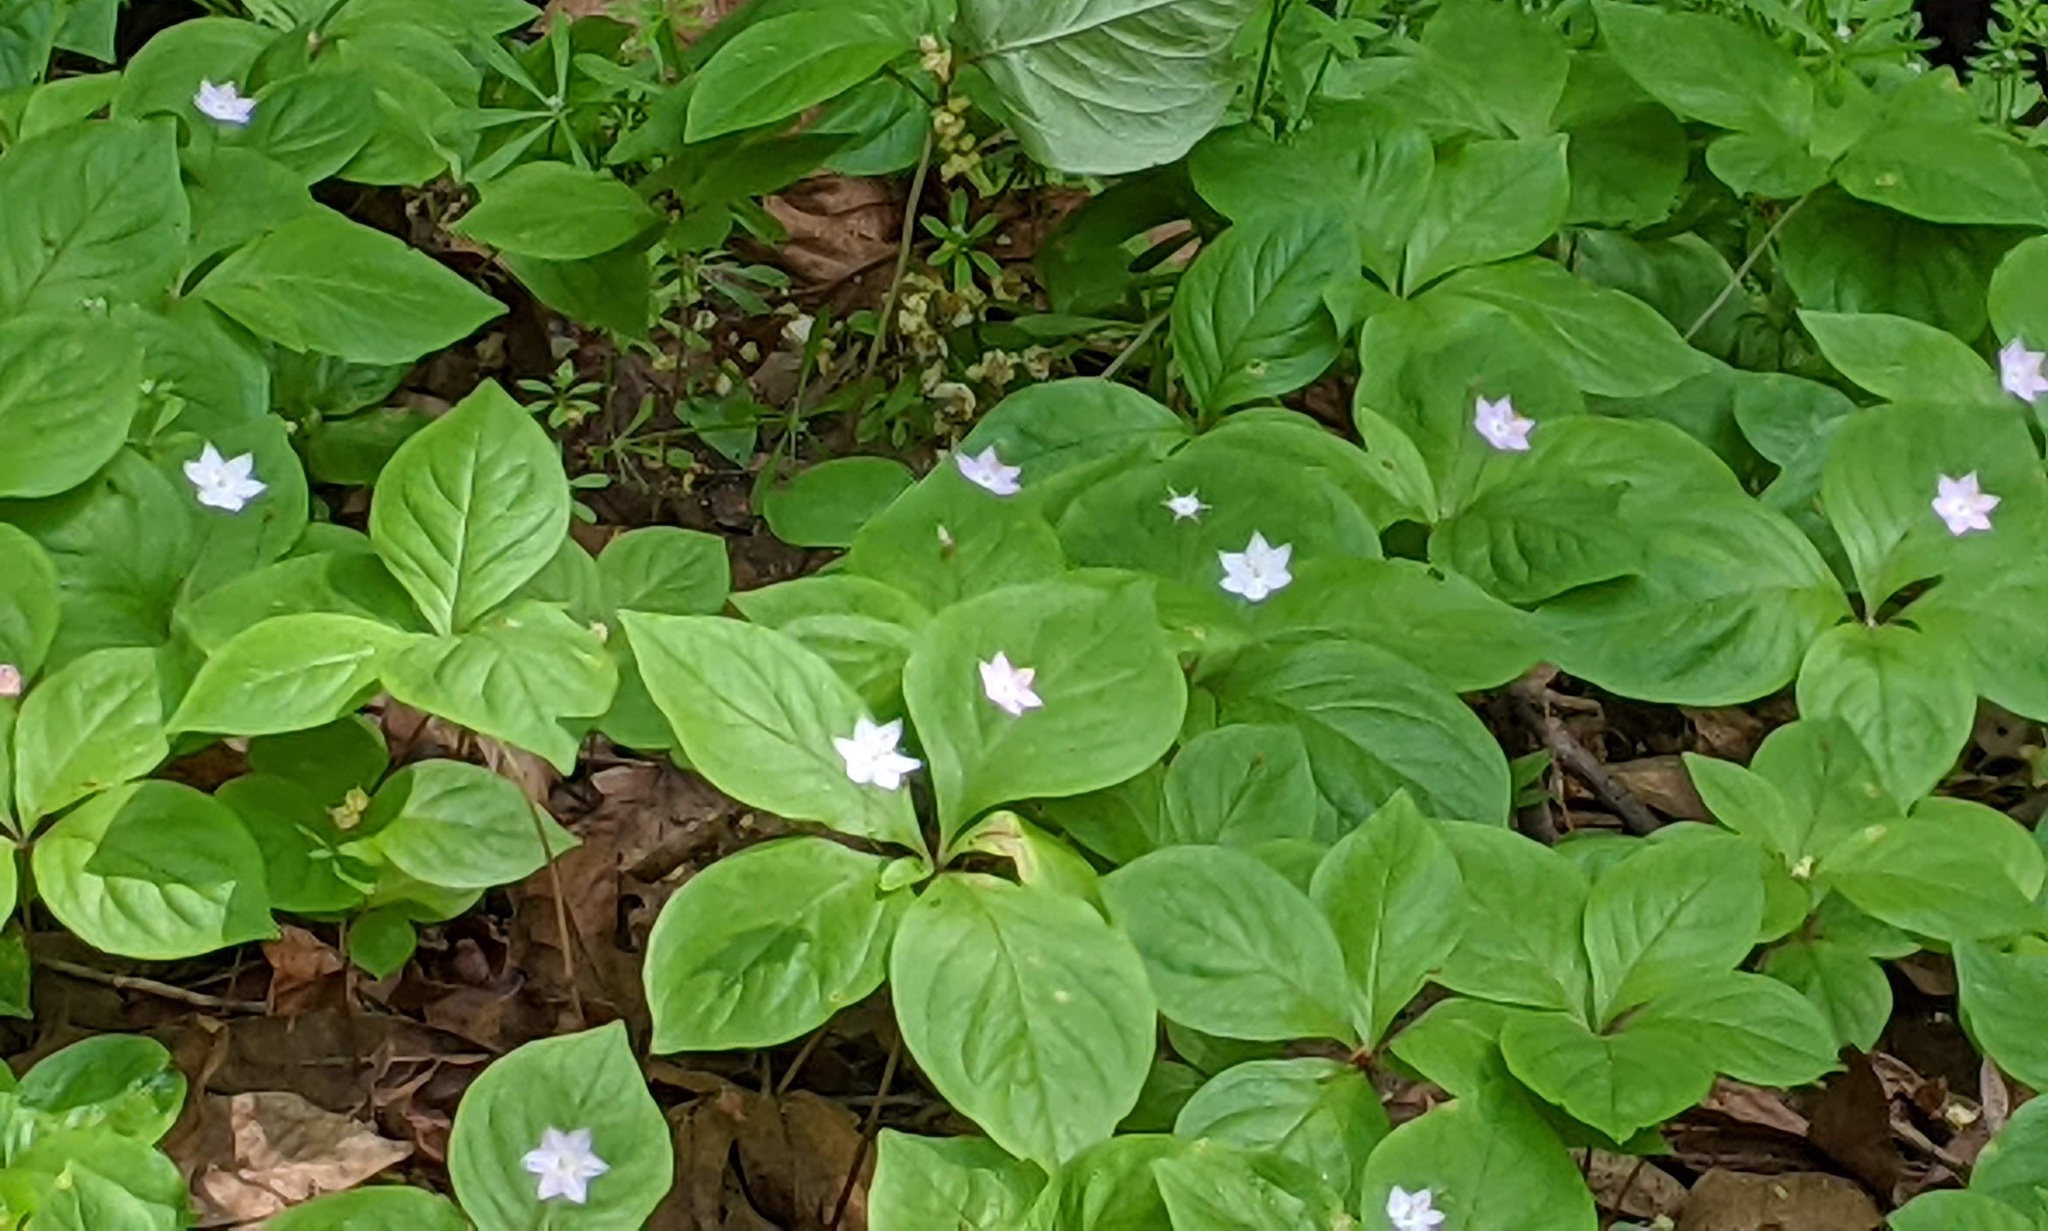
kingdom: Plantae
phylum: Tracheophyta
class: Magnoliopsida
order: Ericales
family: Primulaceae
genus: Lysimachia
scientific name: Lysimachia latifolia
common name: Pacific starflower
